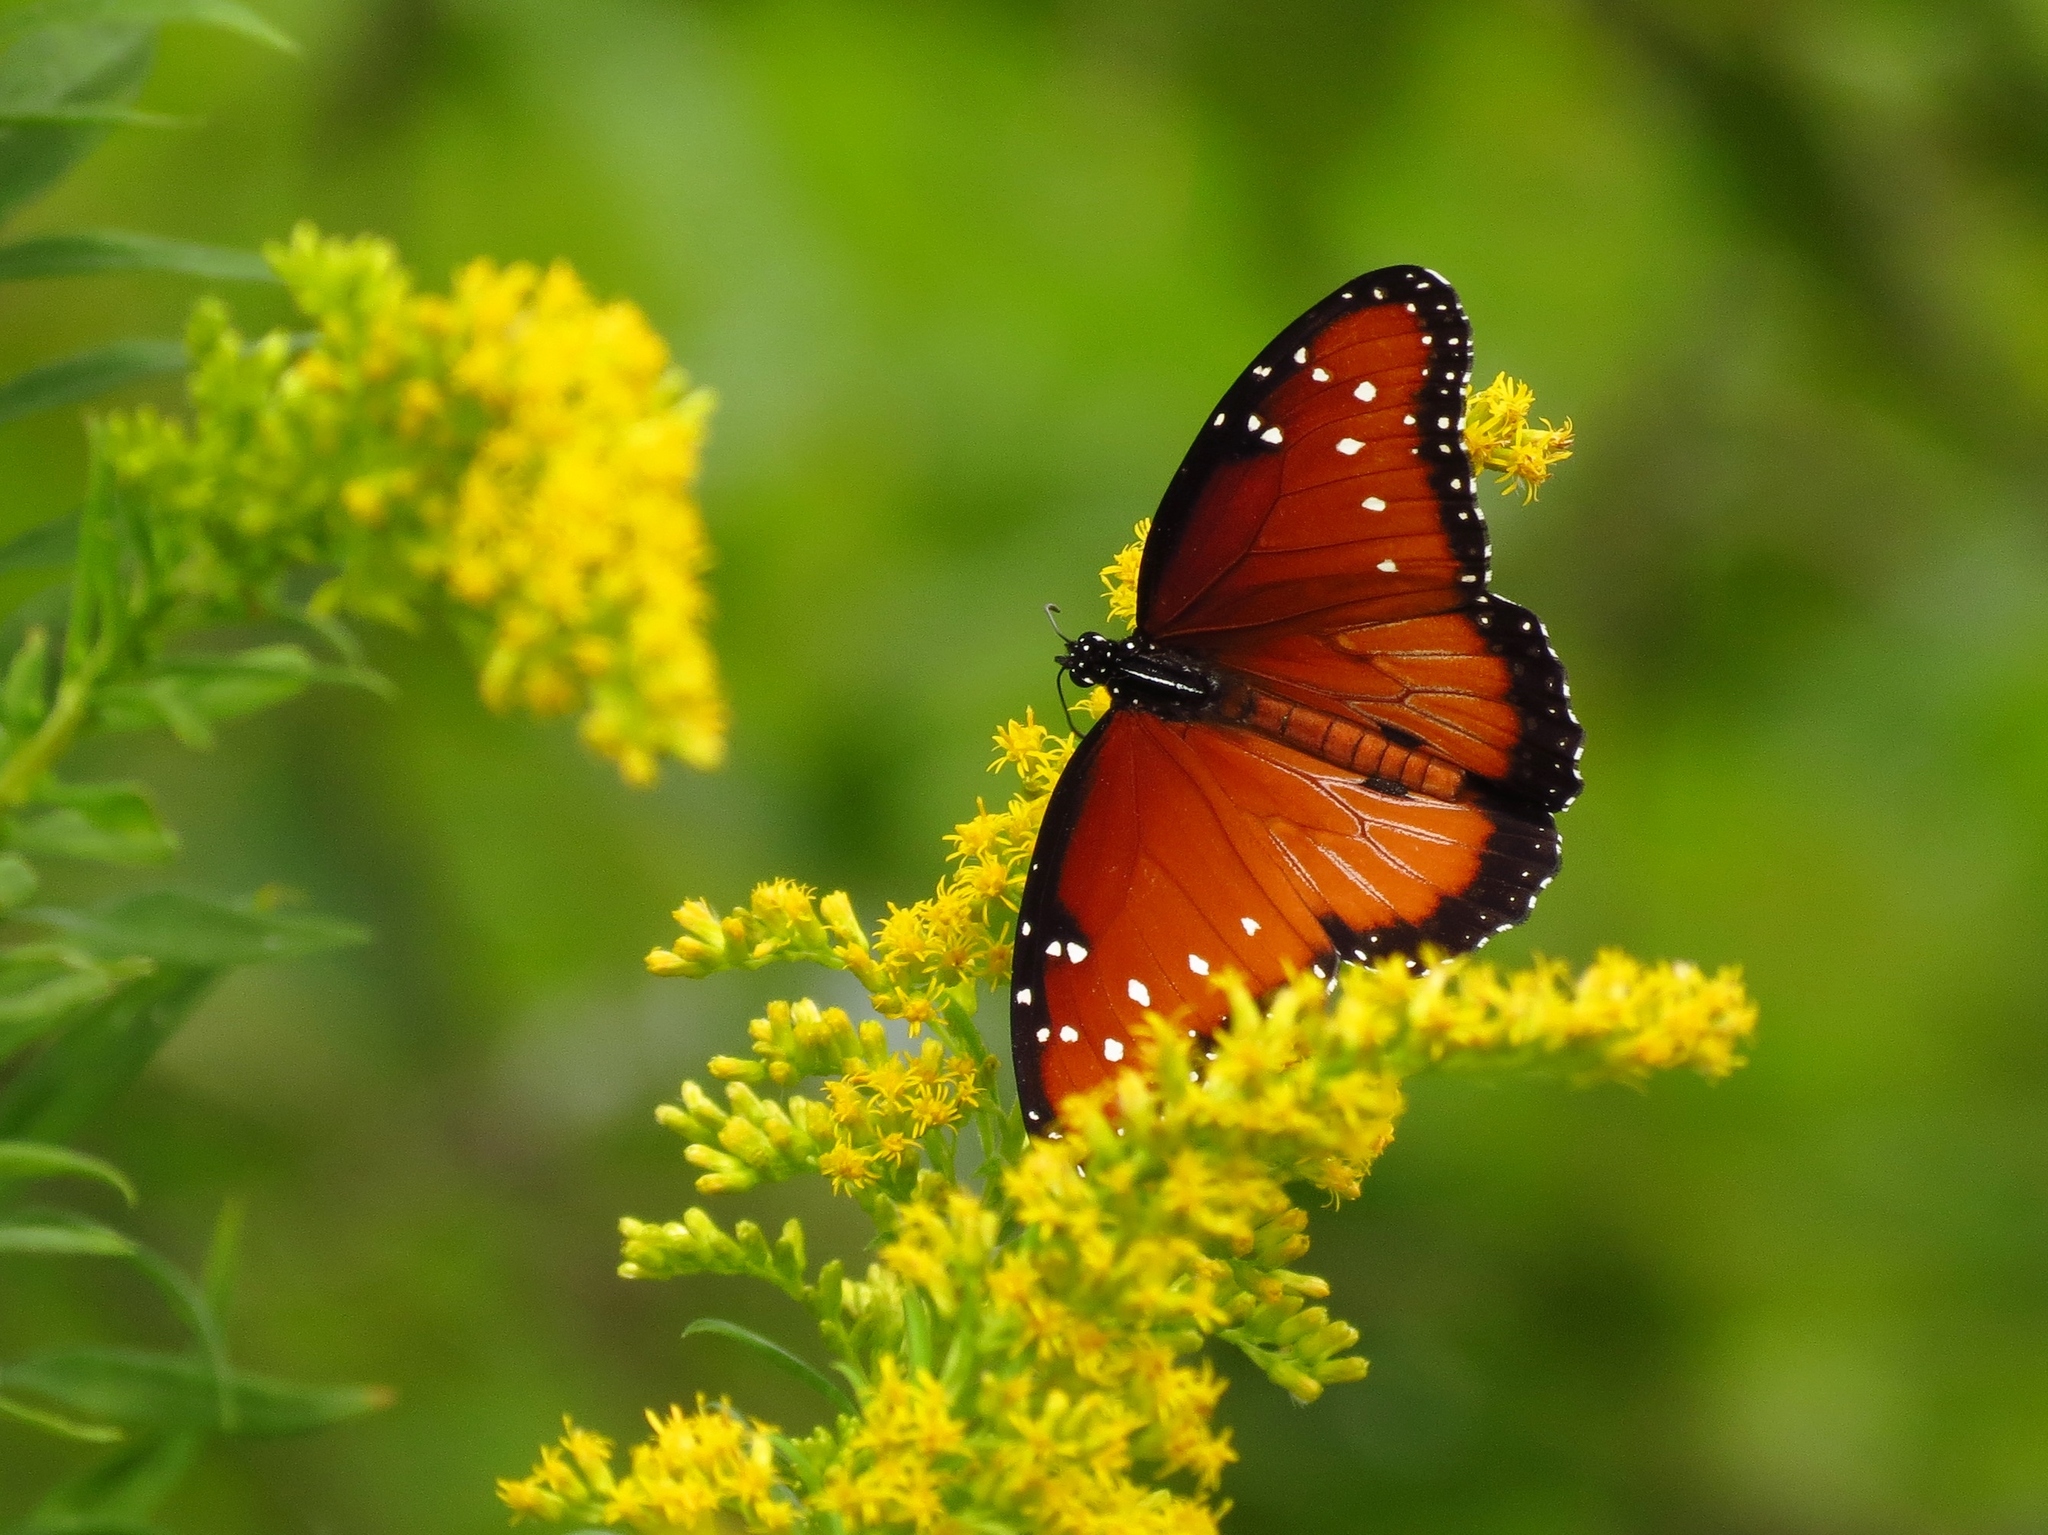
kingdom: Animalia
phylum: Arthropoda
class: Insecta
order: Lepidoptera
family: Nymphalidae
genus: Danaus
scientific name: Danaus gilippus
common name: Queen
